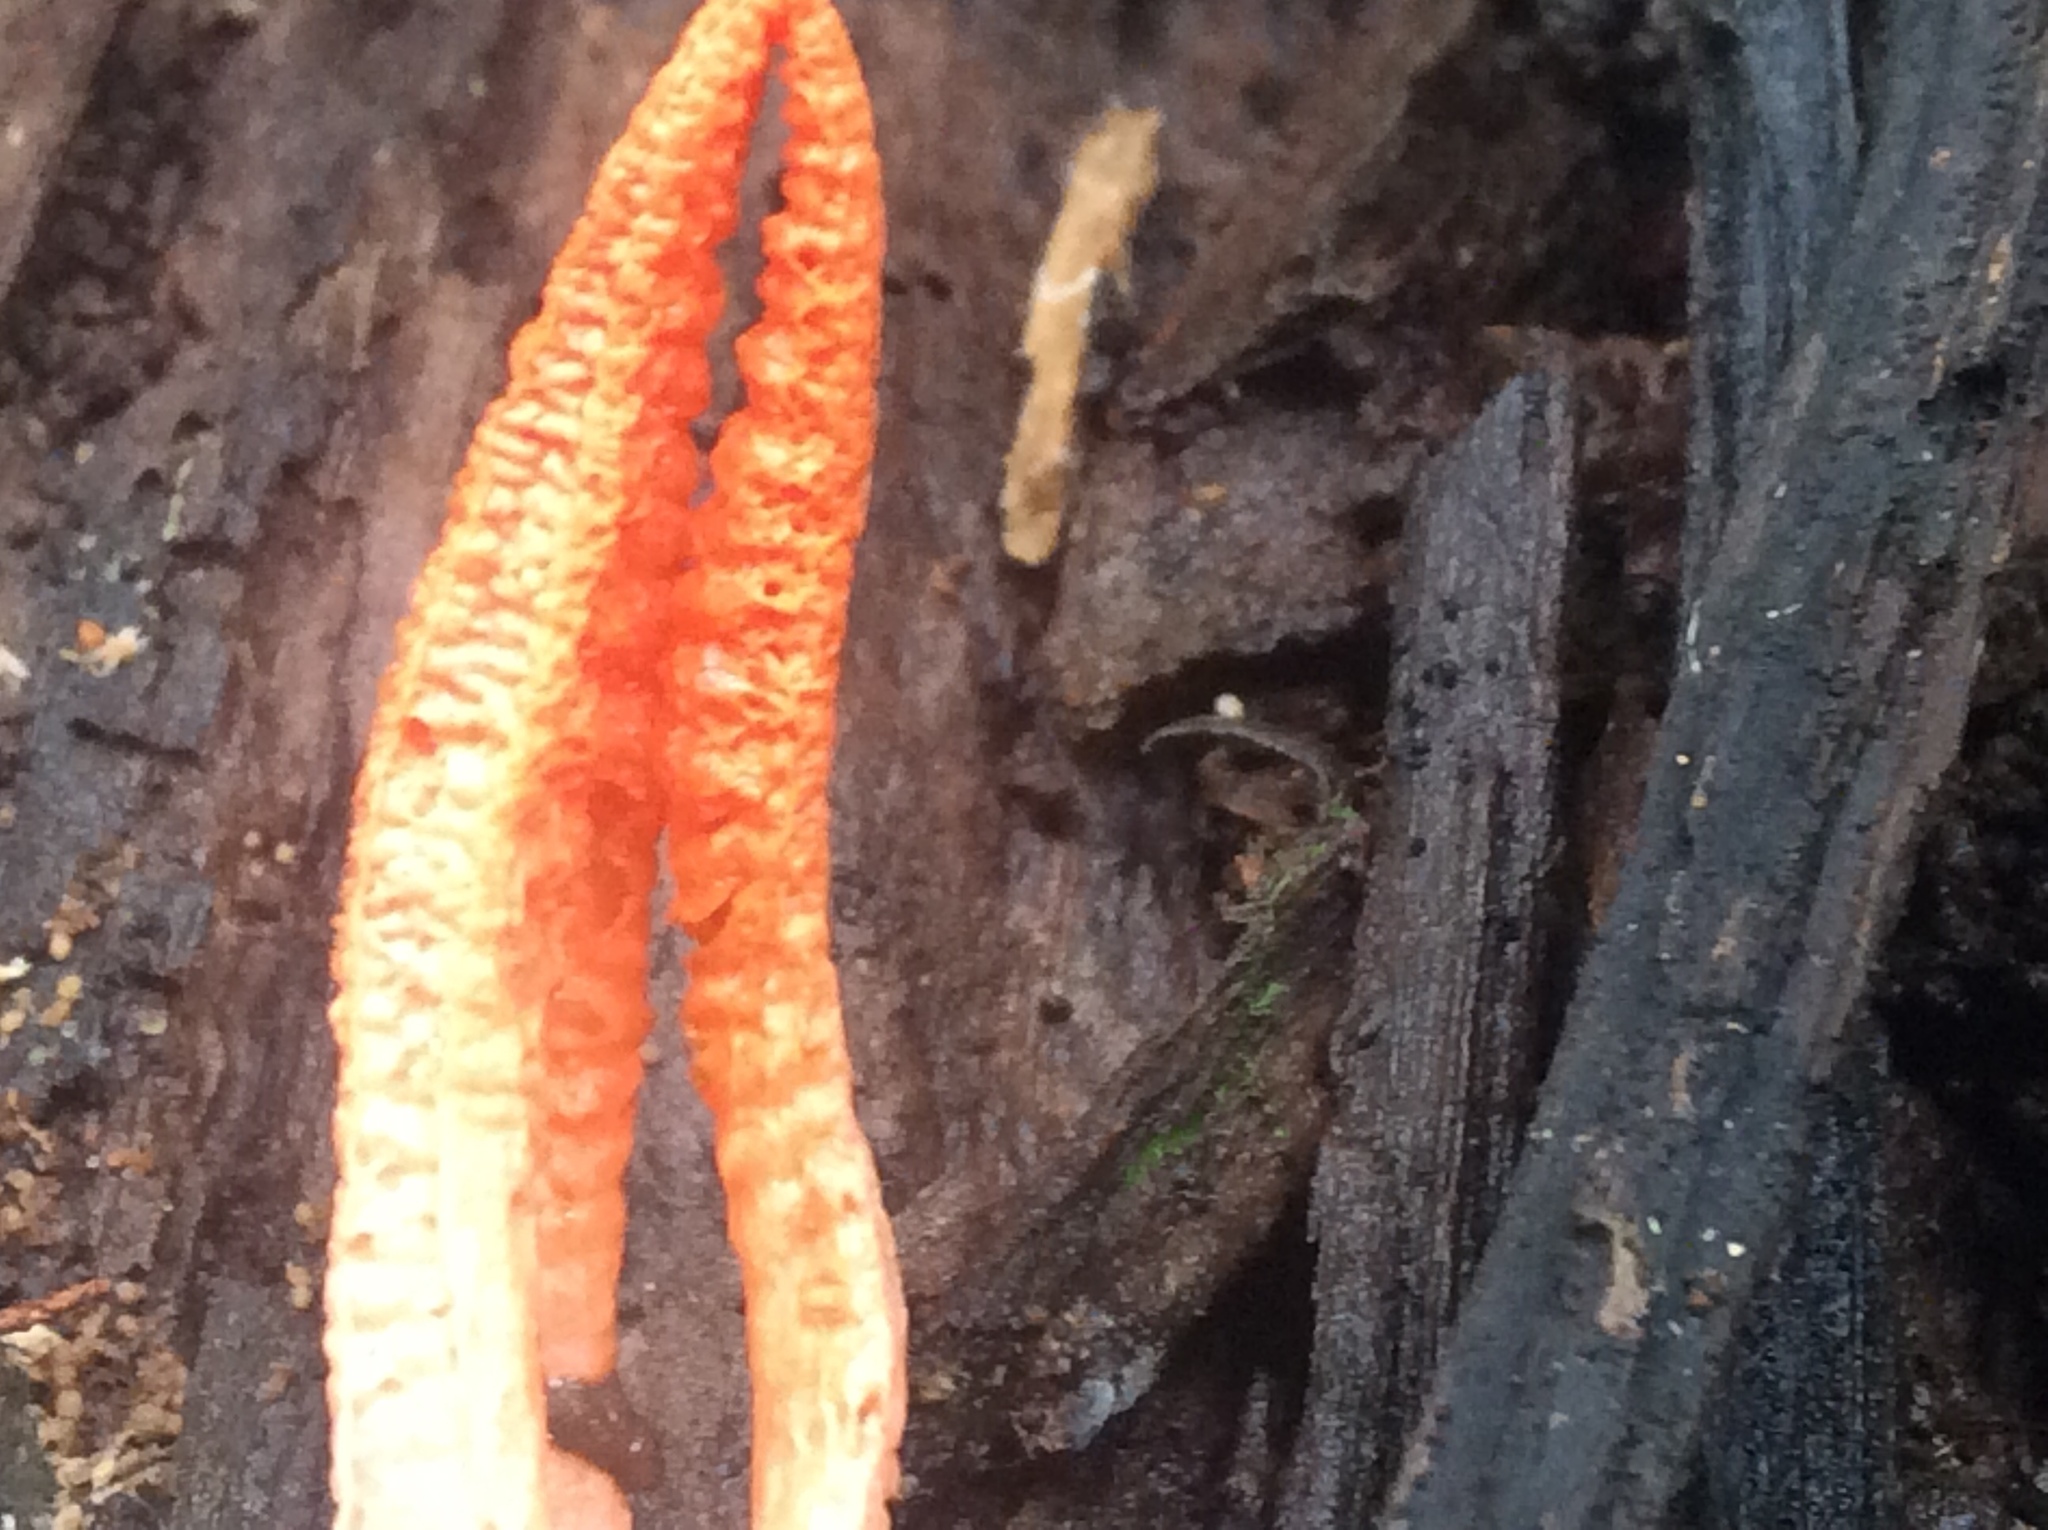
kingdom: Fungi
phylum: Basidiomycota
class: Agaricomycetes
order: Phallales
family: Phallaceae
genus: Pseudocolus
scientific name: Pseudocolus fusiformis
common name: Stinky squid
